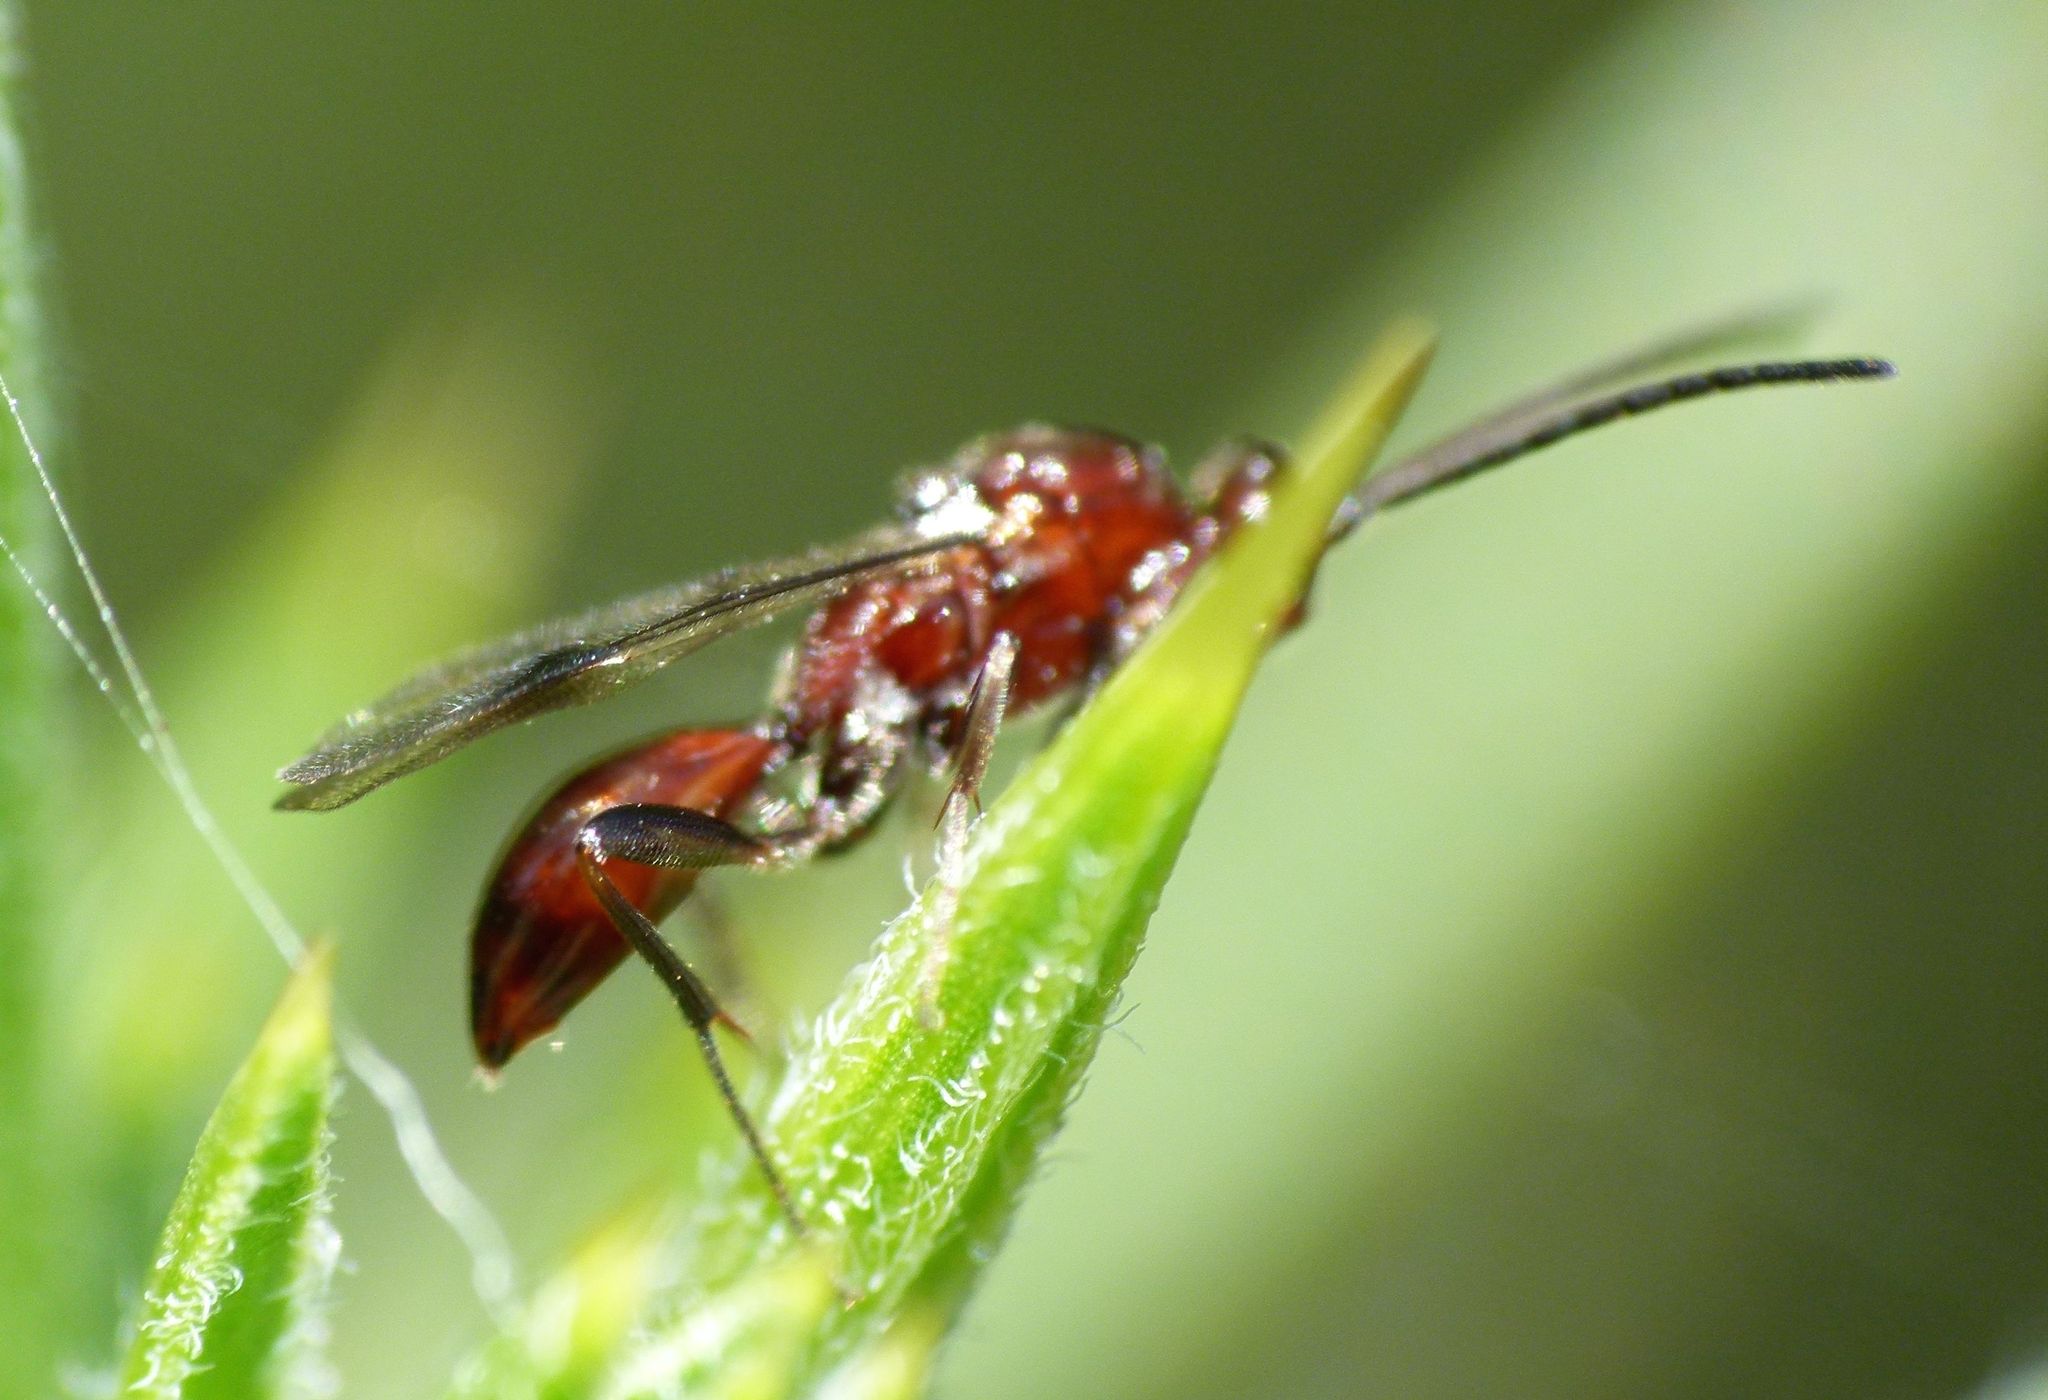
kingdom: Animalia
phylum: Arthropoda
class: Insecta
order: Hymenoptera
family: Proctotrupidae
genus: Fustiserphus
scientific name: Fustiserphus
